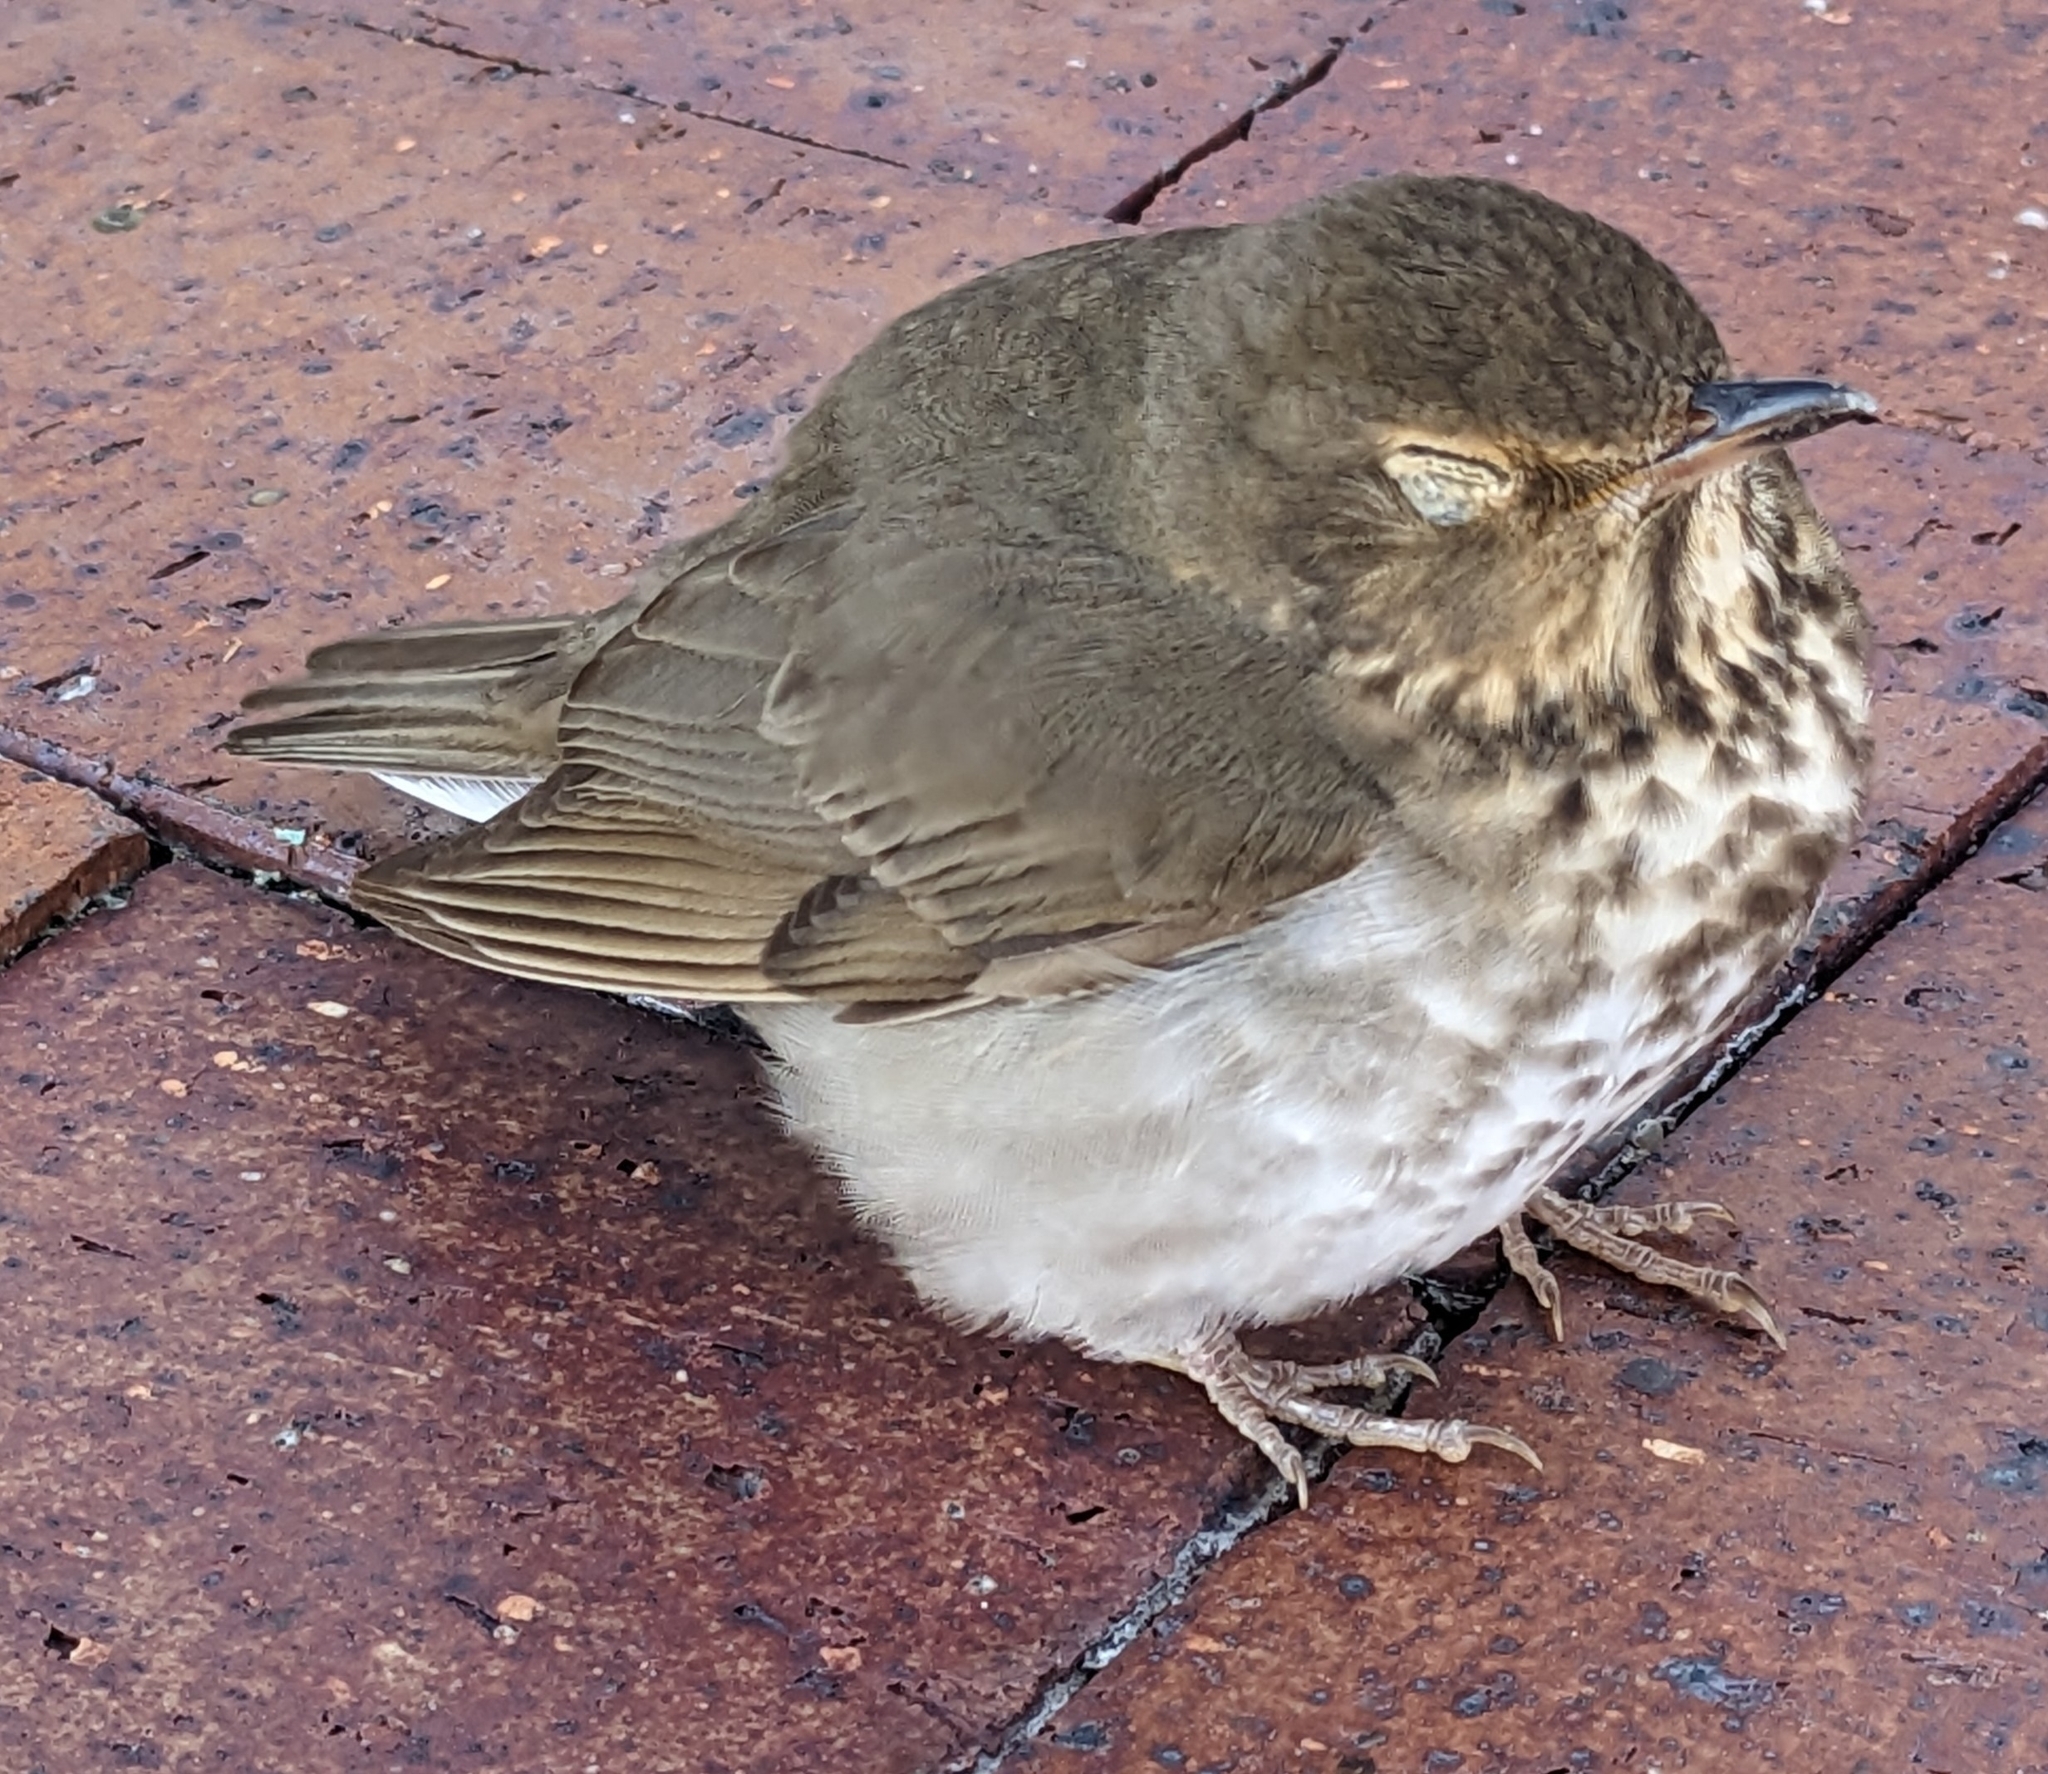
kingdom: Animalia
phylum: Chordata
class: Aves
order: Passeriformes
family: Turdidae
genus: Catharus
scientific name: Catharus ustulatus
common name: Swainson's thrush
